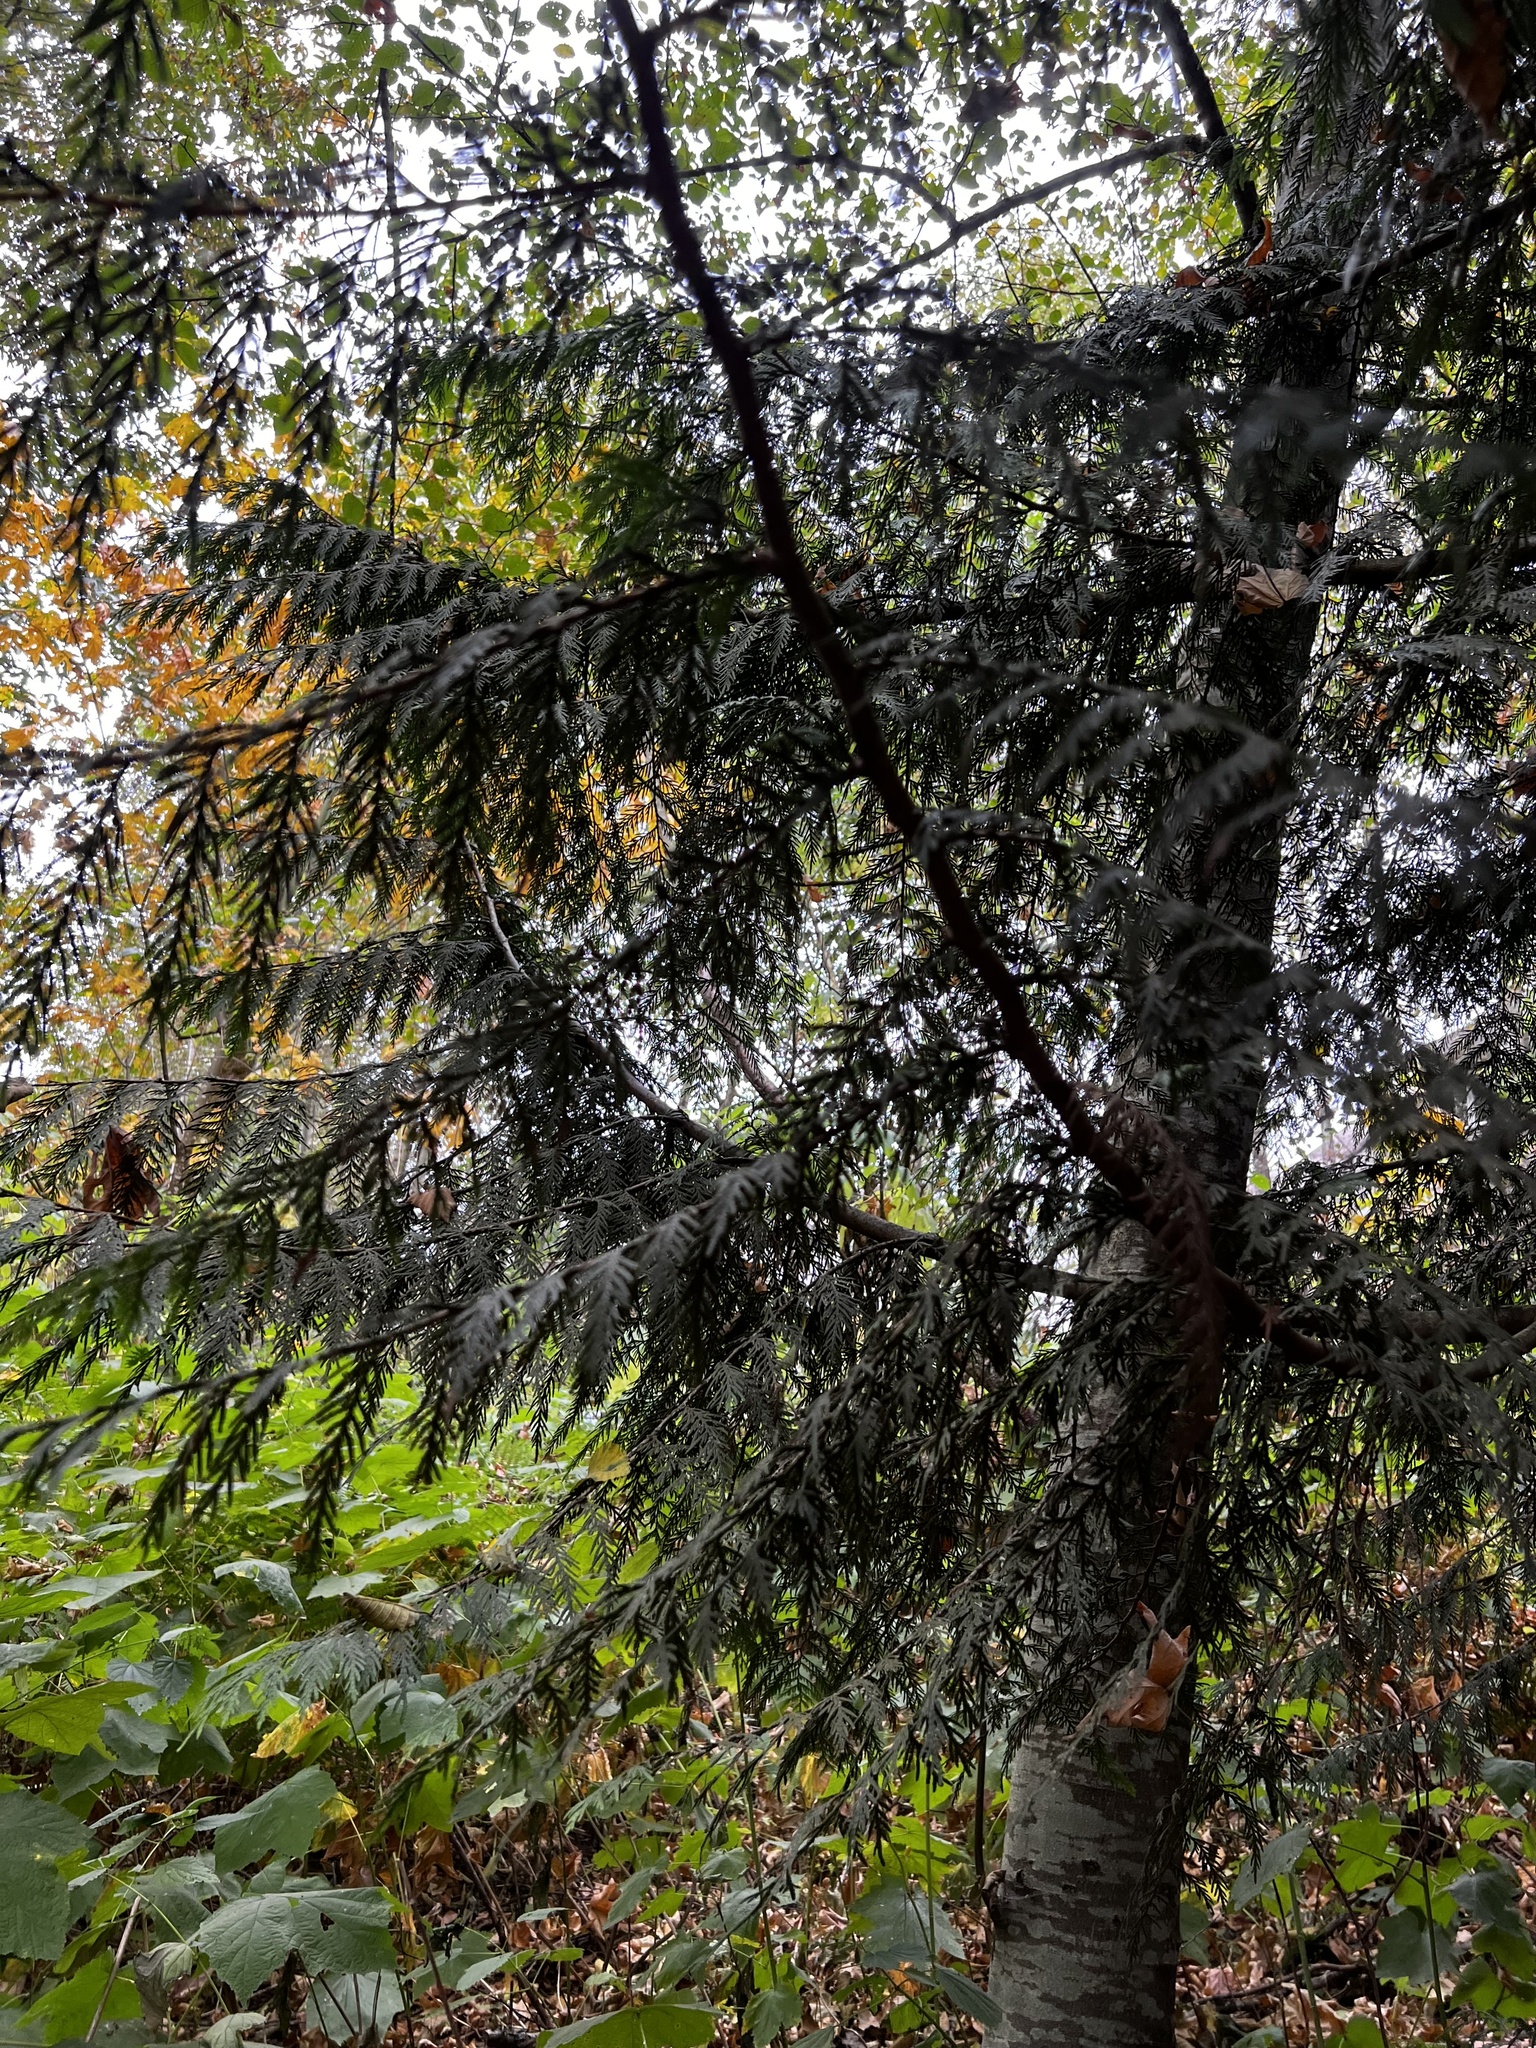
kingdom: Plantae
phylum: Tracheophyta
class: Pinopsida
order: Pinales
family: Cupressaceae
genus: Thuja
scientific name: Thuja plicata
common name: Western red-cedar
